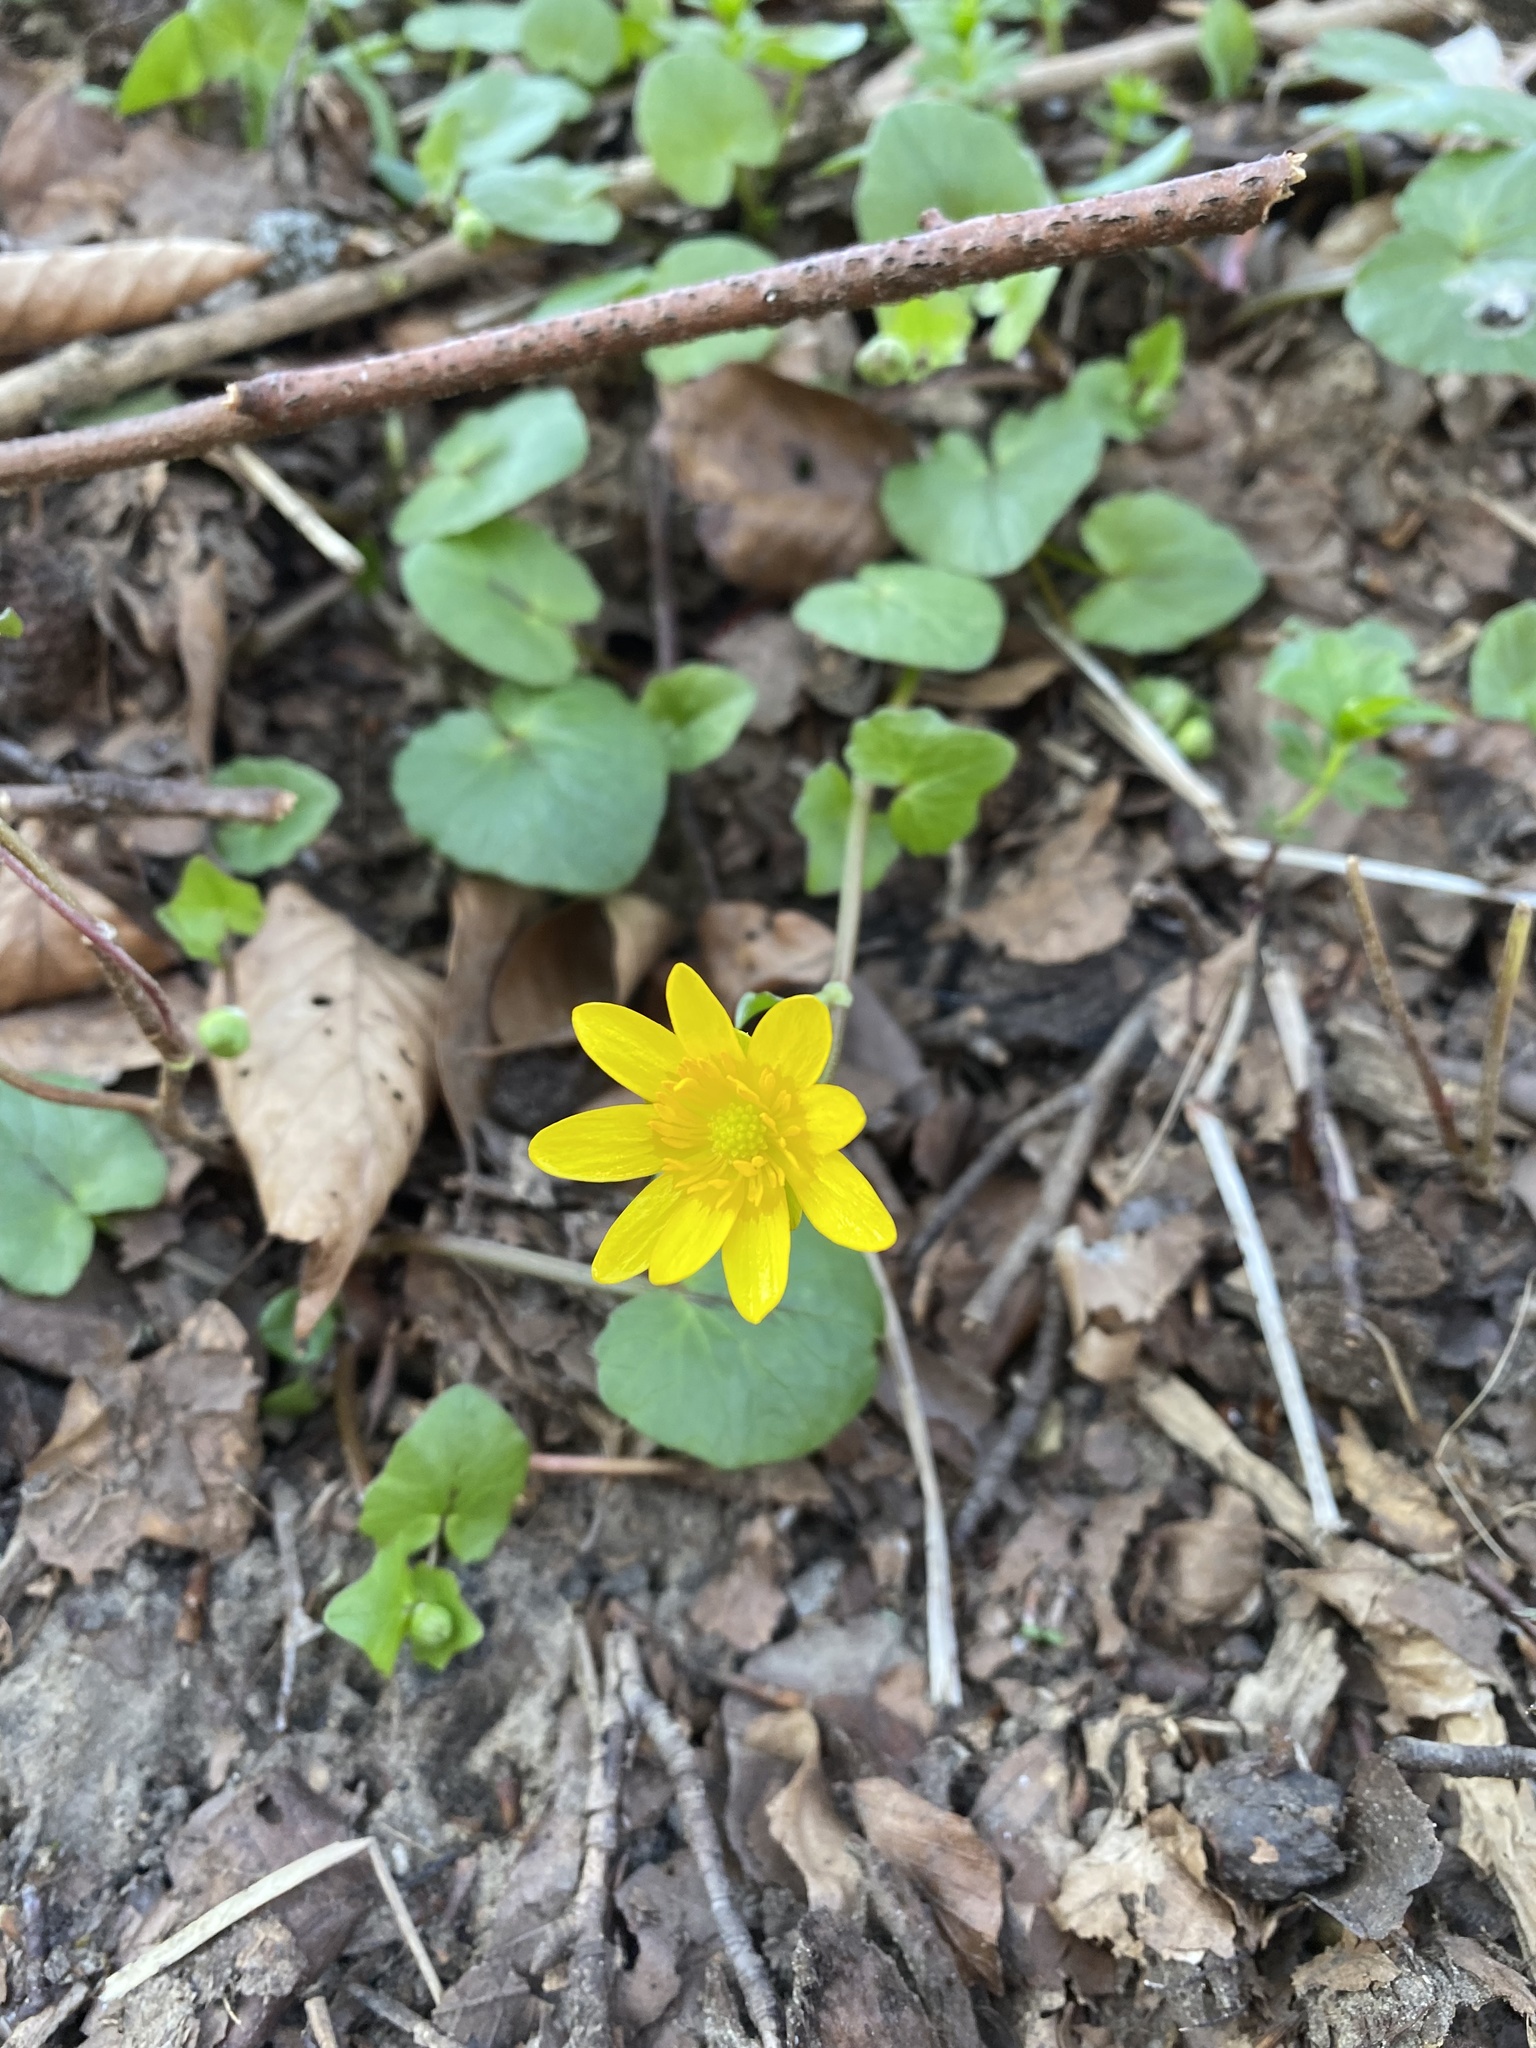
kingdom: Plantae
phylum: Tracheophyta
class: Magnoliopsida
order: Ranunculales
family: Ranunculaceae
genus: Ficaria
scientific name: Ficaria verna
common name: Lesser celandine
